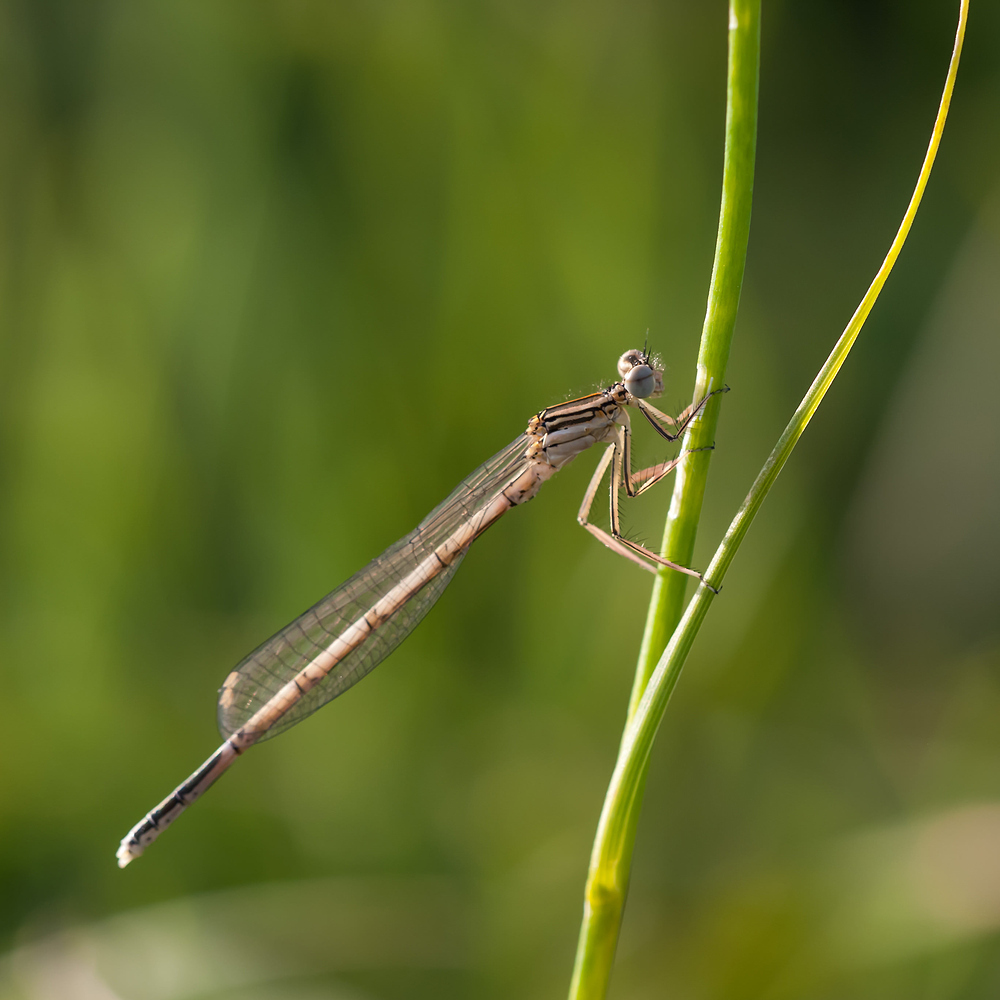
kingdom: Animalia
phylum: Arthropoda
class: Insecta
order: Odonata
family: Platycnemididae
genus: Platycnemis
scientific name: Platycnemis pennipes
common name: White-legged damselfly
